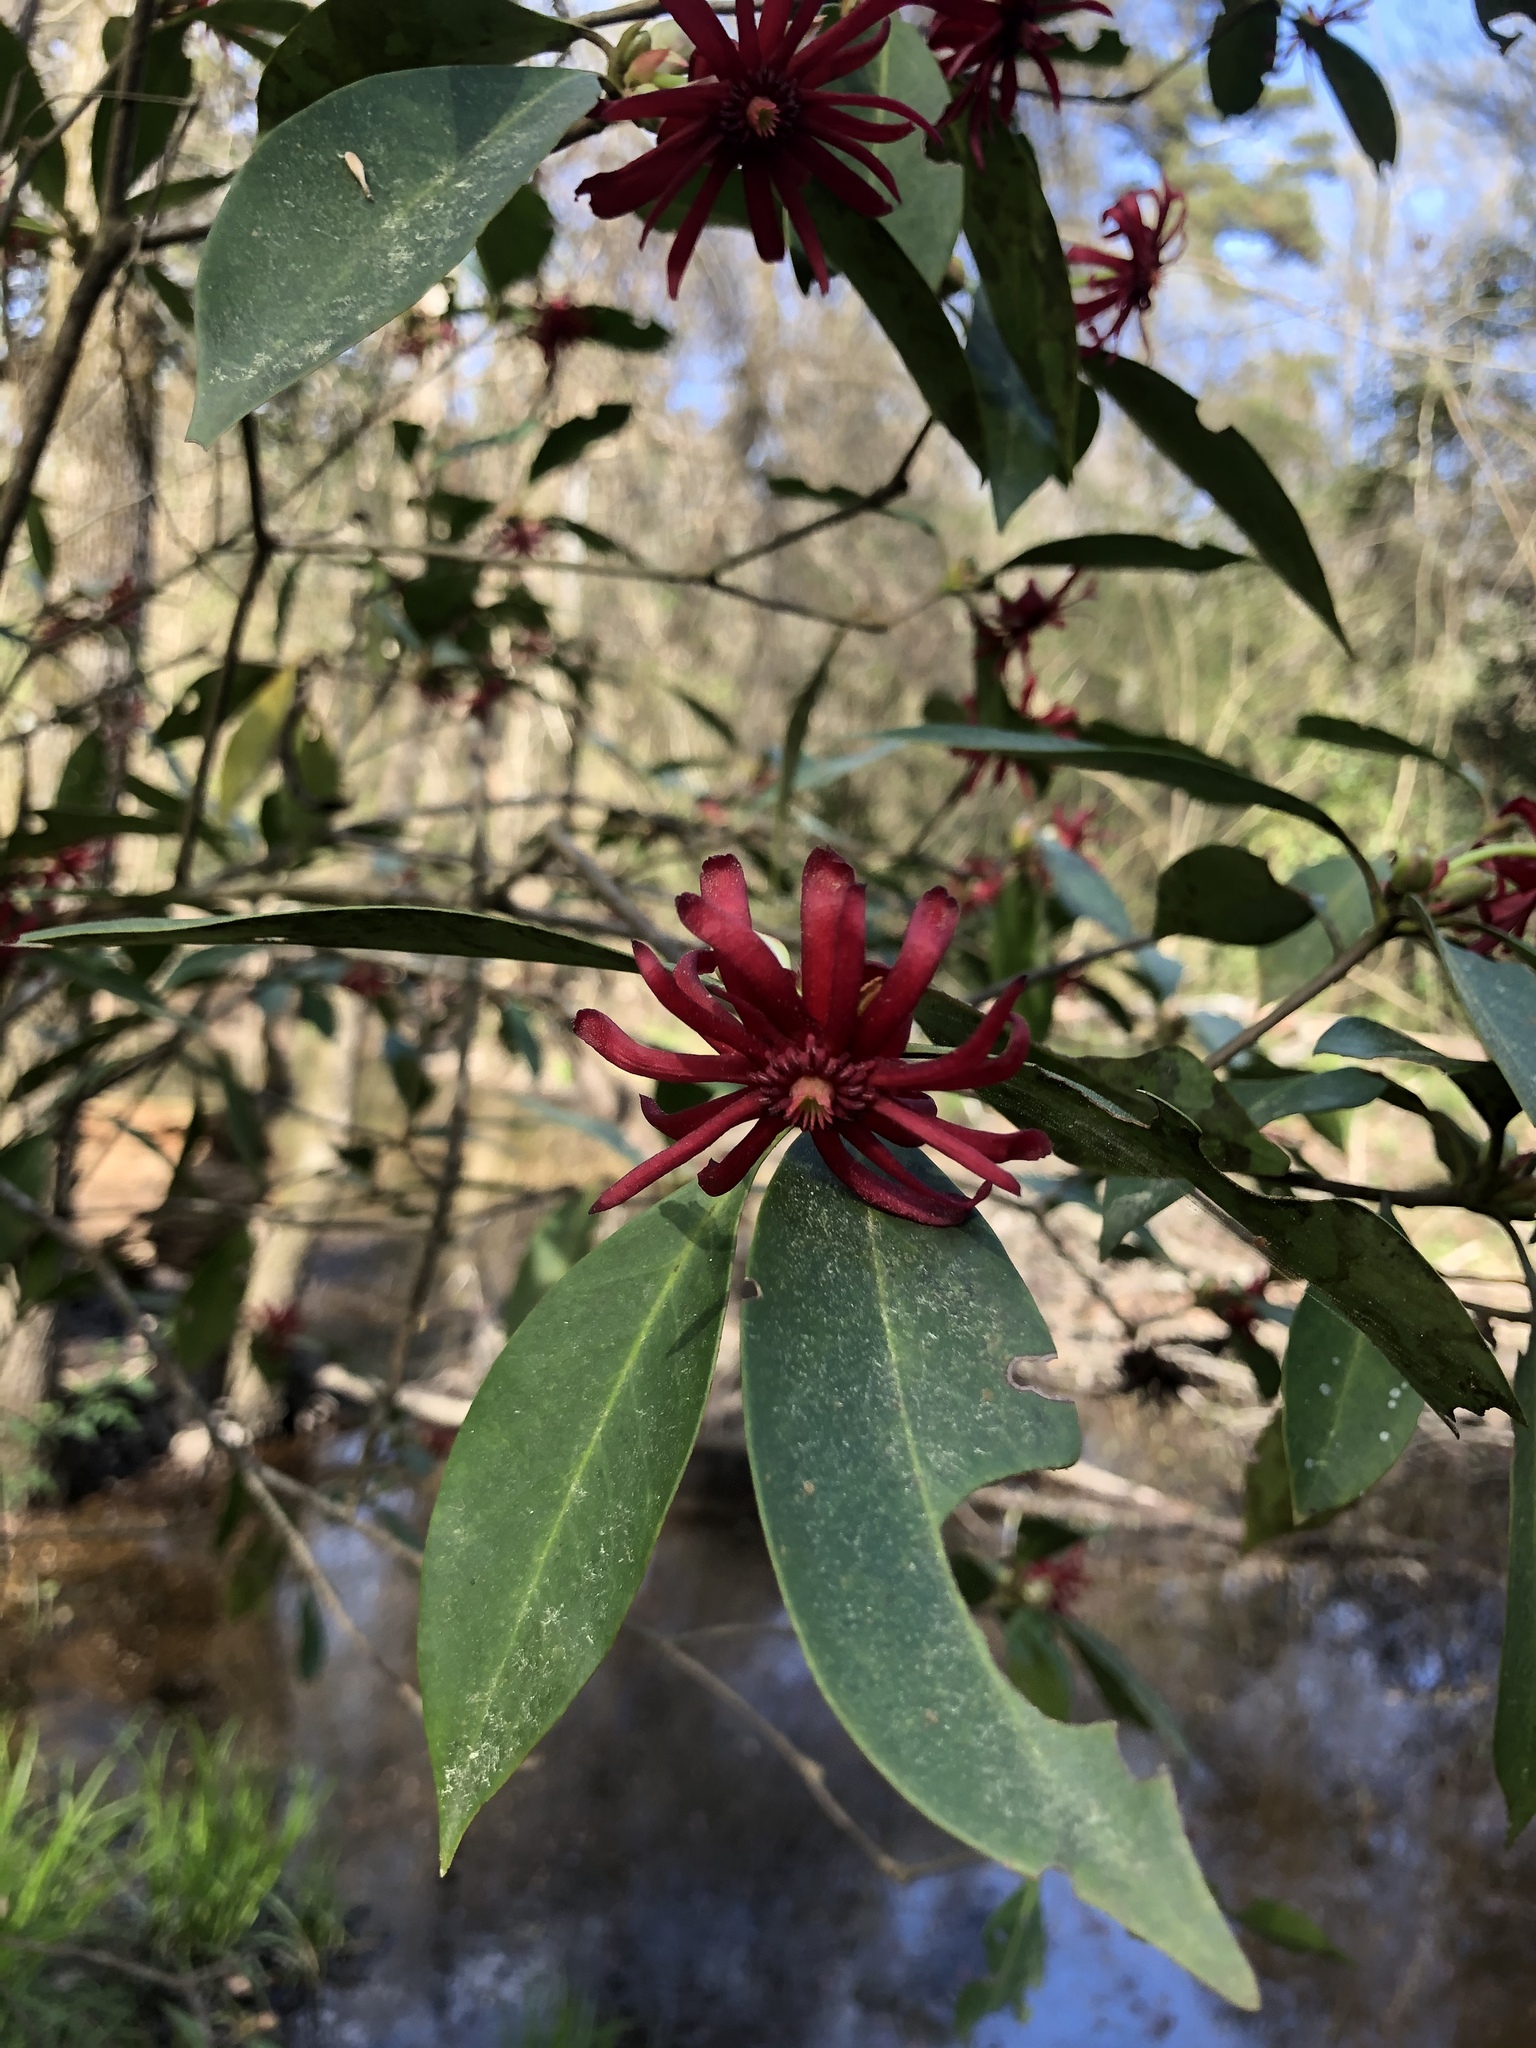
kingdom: Plantae
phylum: Tracheophyta
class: Magnoliopsida
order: Austrobaileyales
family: Schisandraceae
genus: Illicium
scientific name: Illicium floridanum
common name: Florida anisetree
